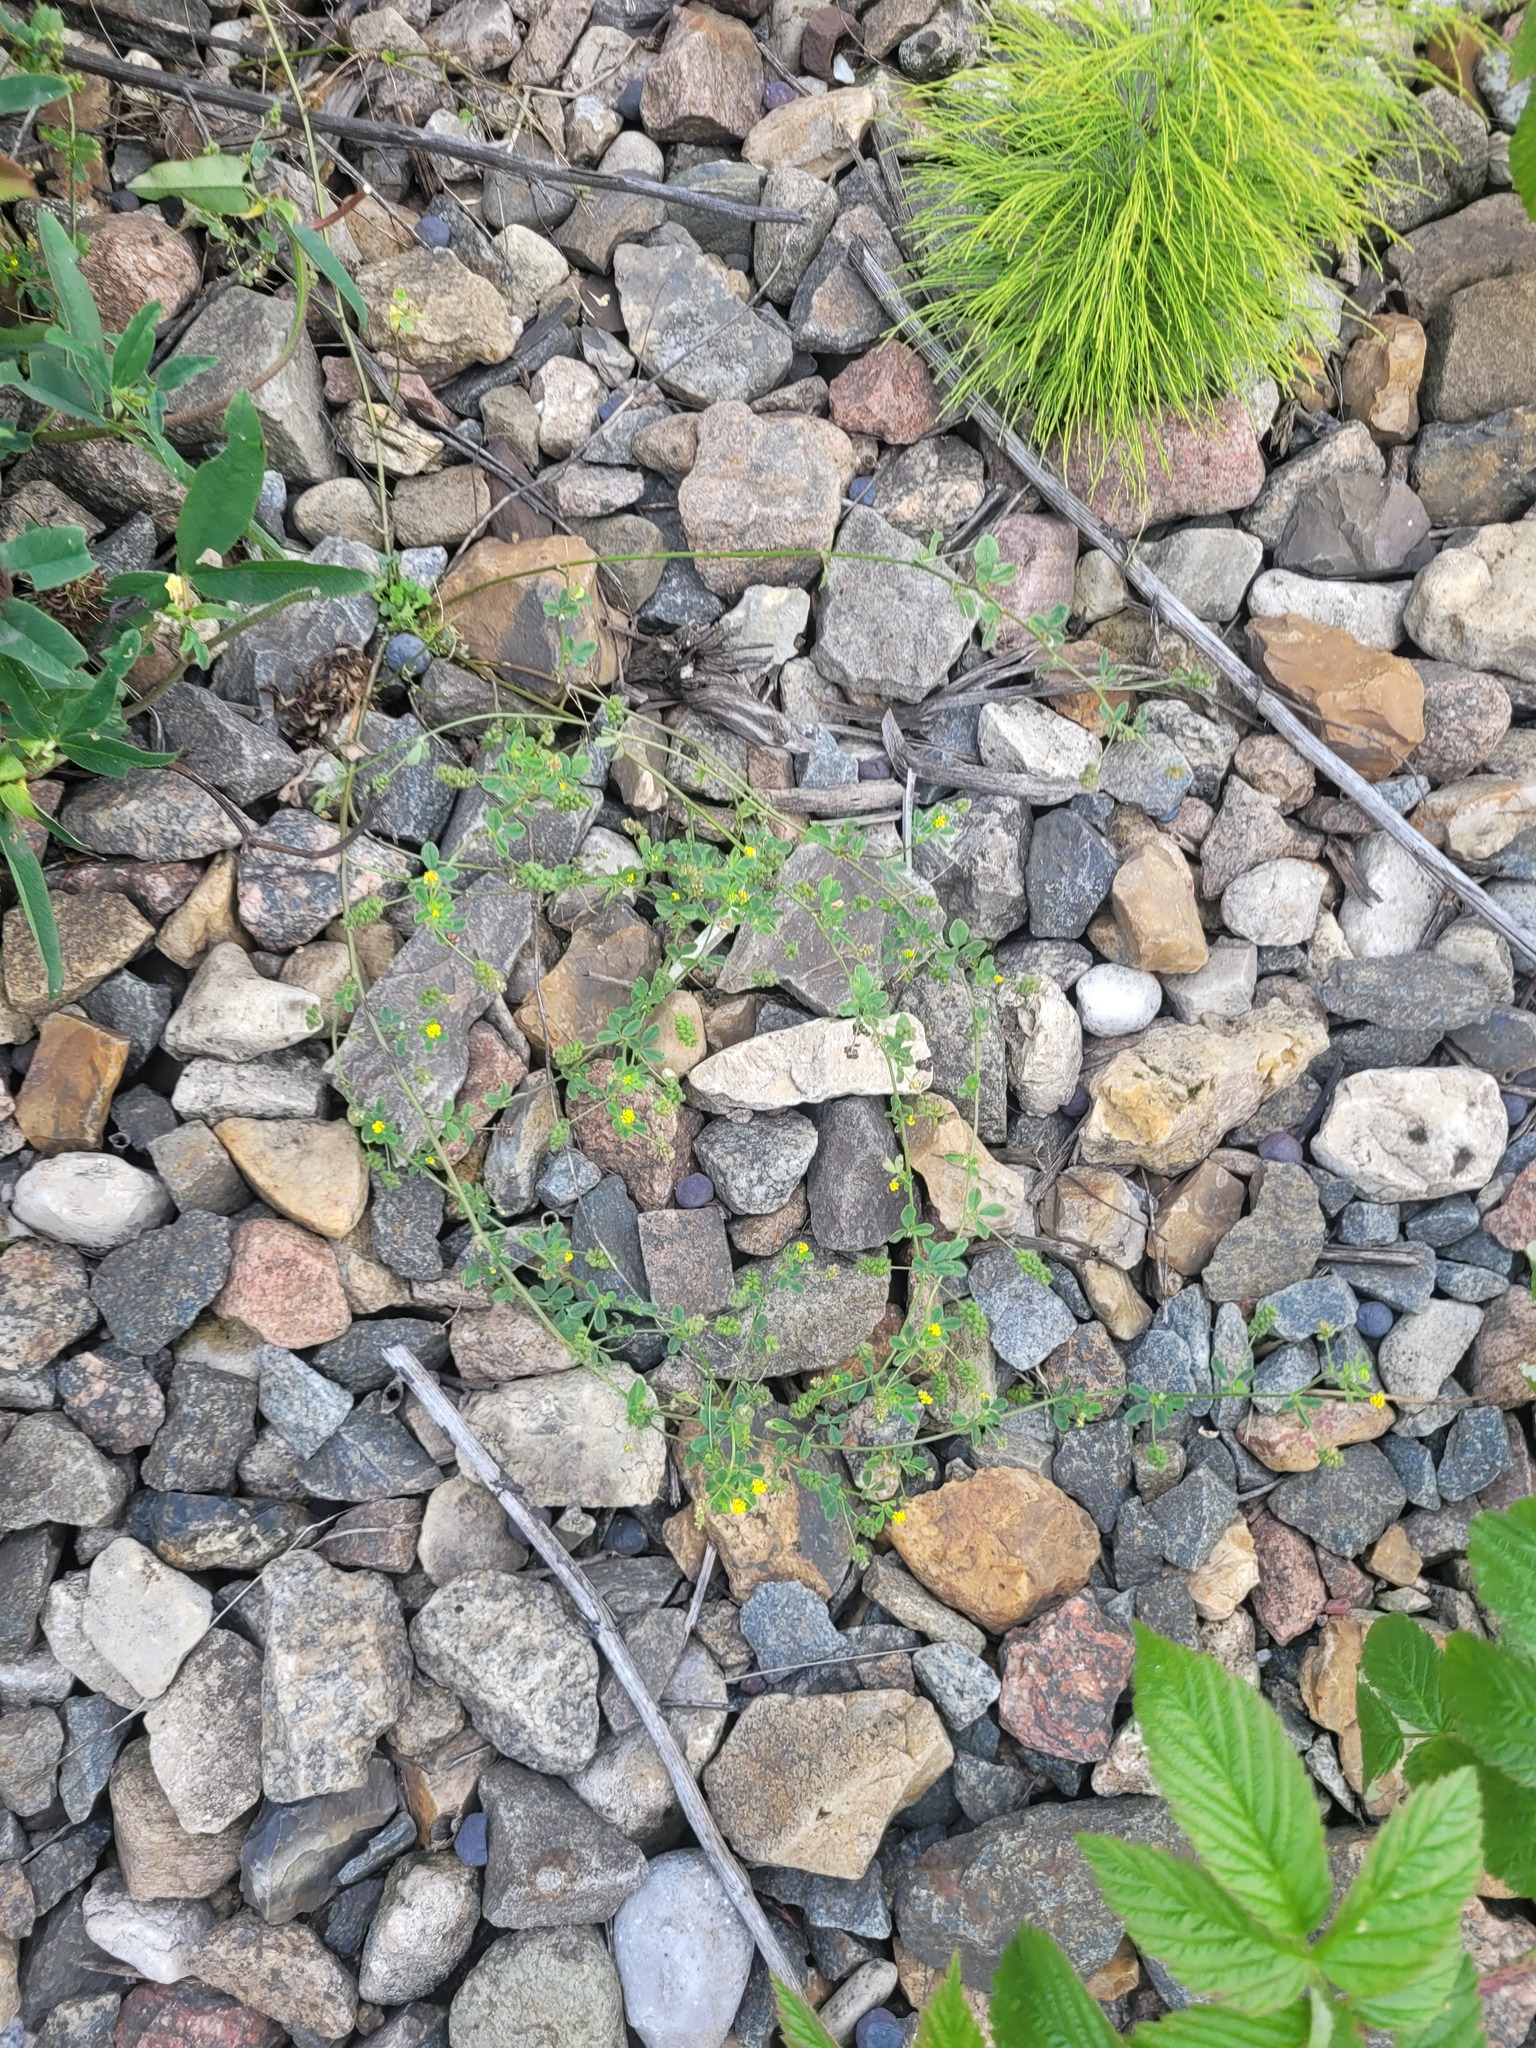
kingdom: Plantae
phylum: Tracheophyta
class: Magnoliopsida
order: Fabales
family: Fabaceae
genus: Medicago
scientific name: Medicago lupulina
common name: Black medick
